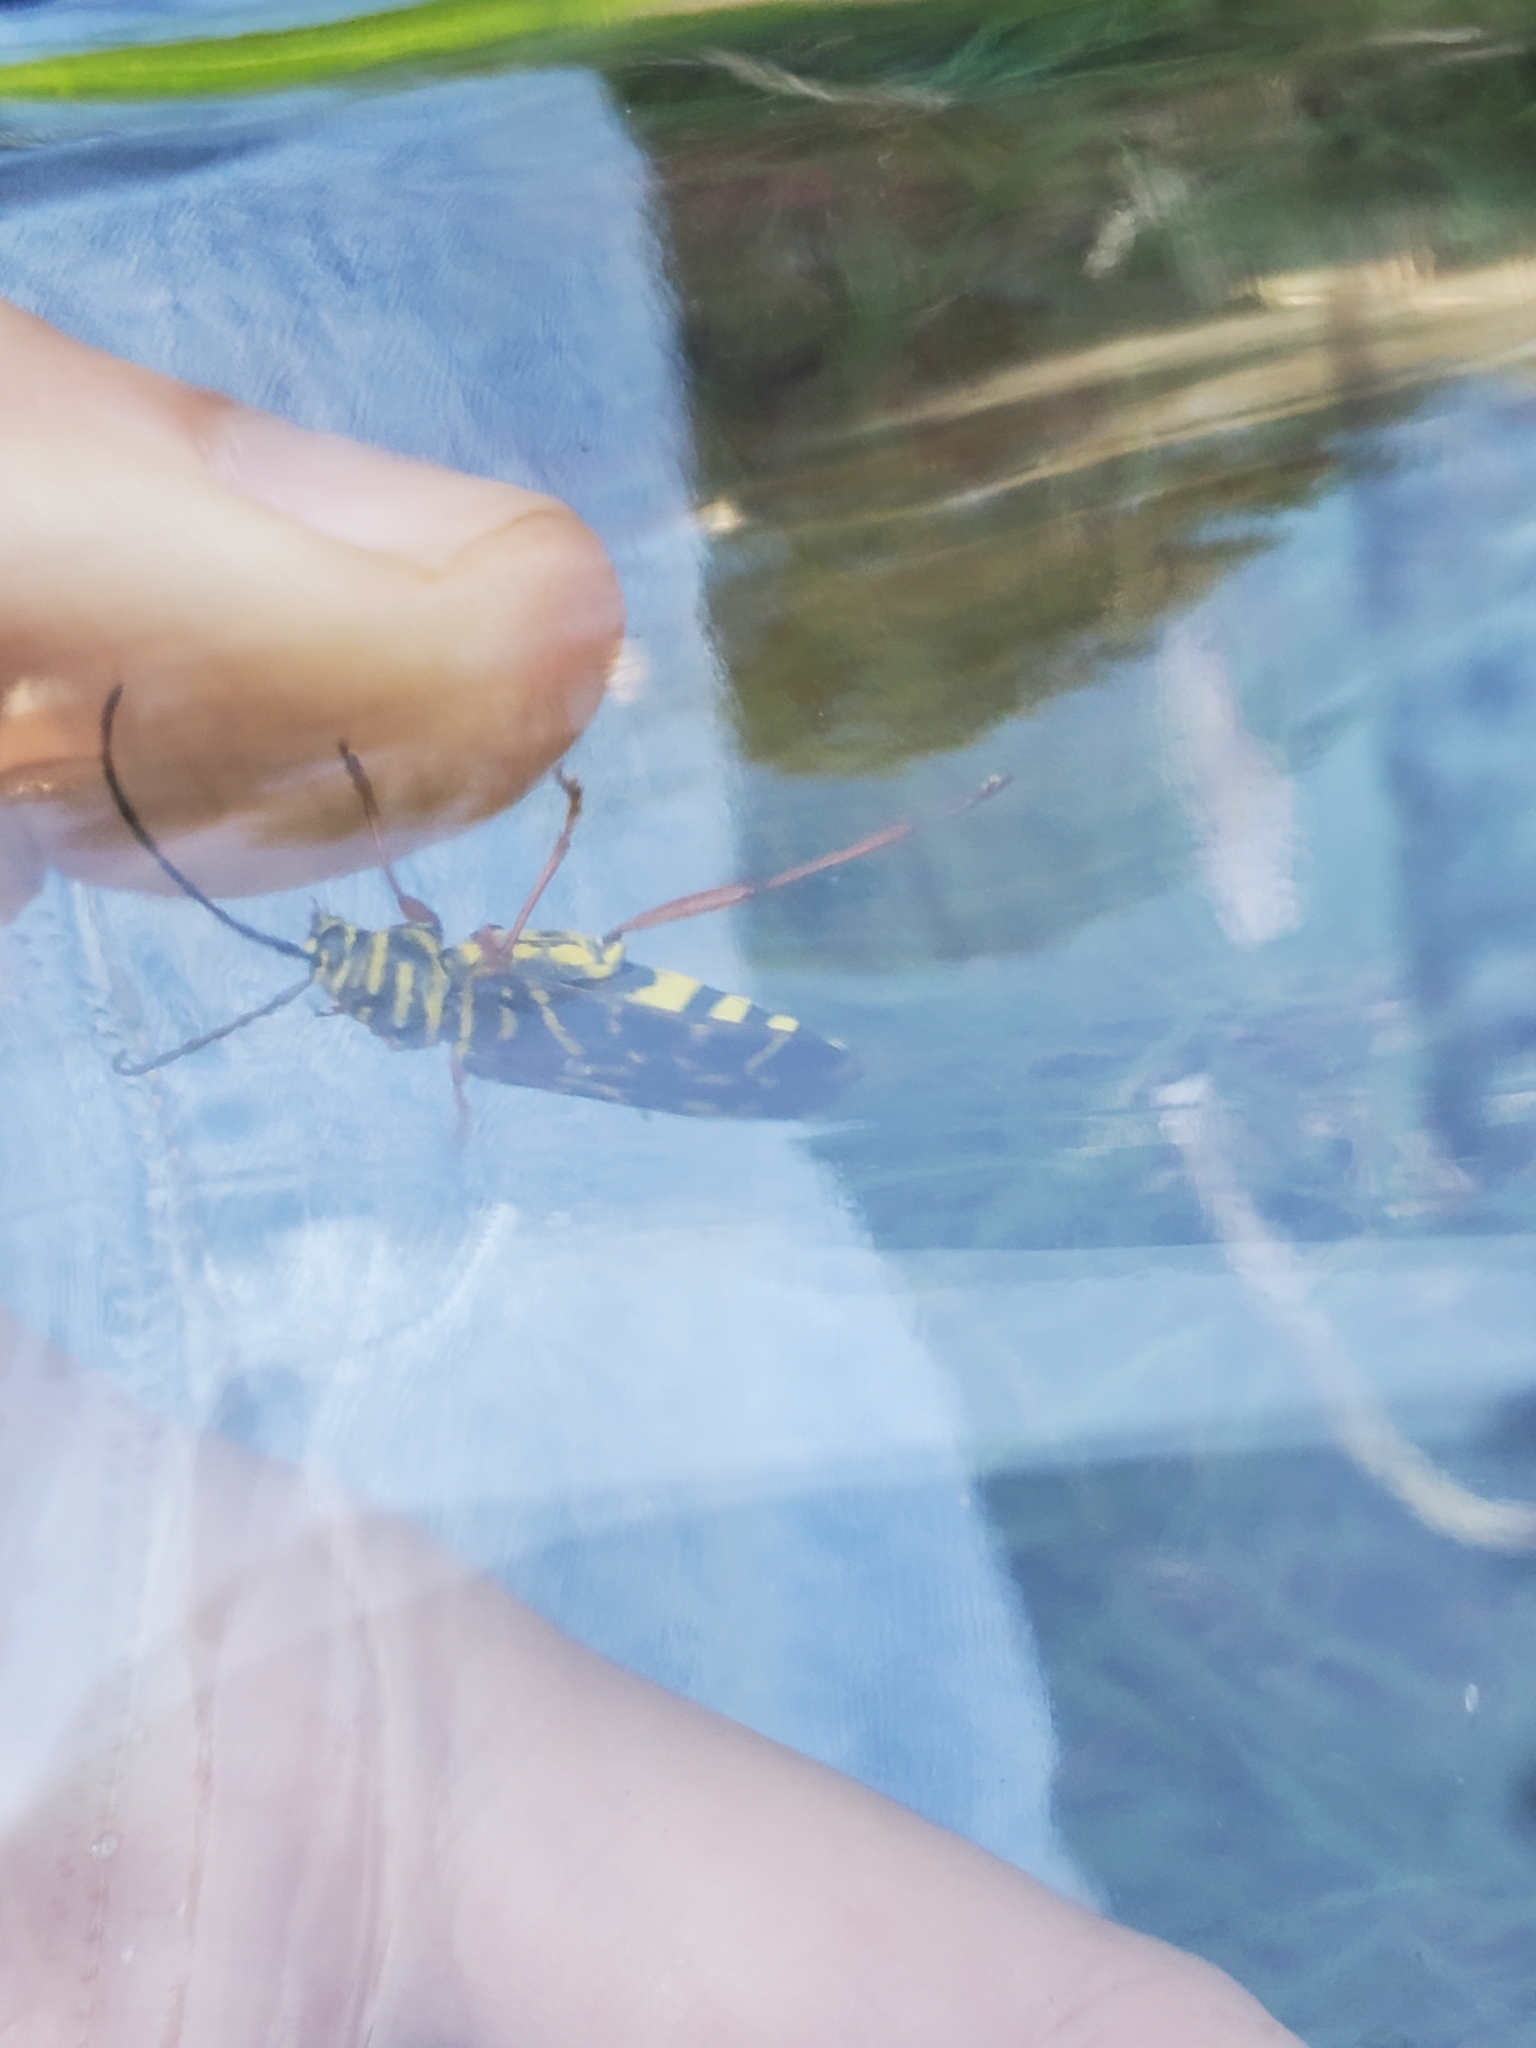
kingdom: Animalia
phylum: Arthropoda
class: Insecta
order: Coleoptera
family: Cerambycidae
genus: Megacyllene
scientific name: Megacyllene robiniae
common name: Locust borer
